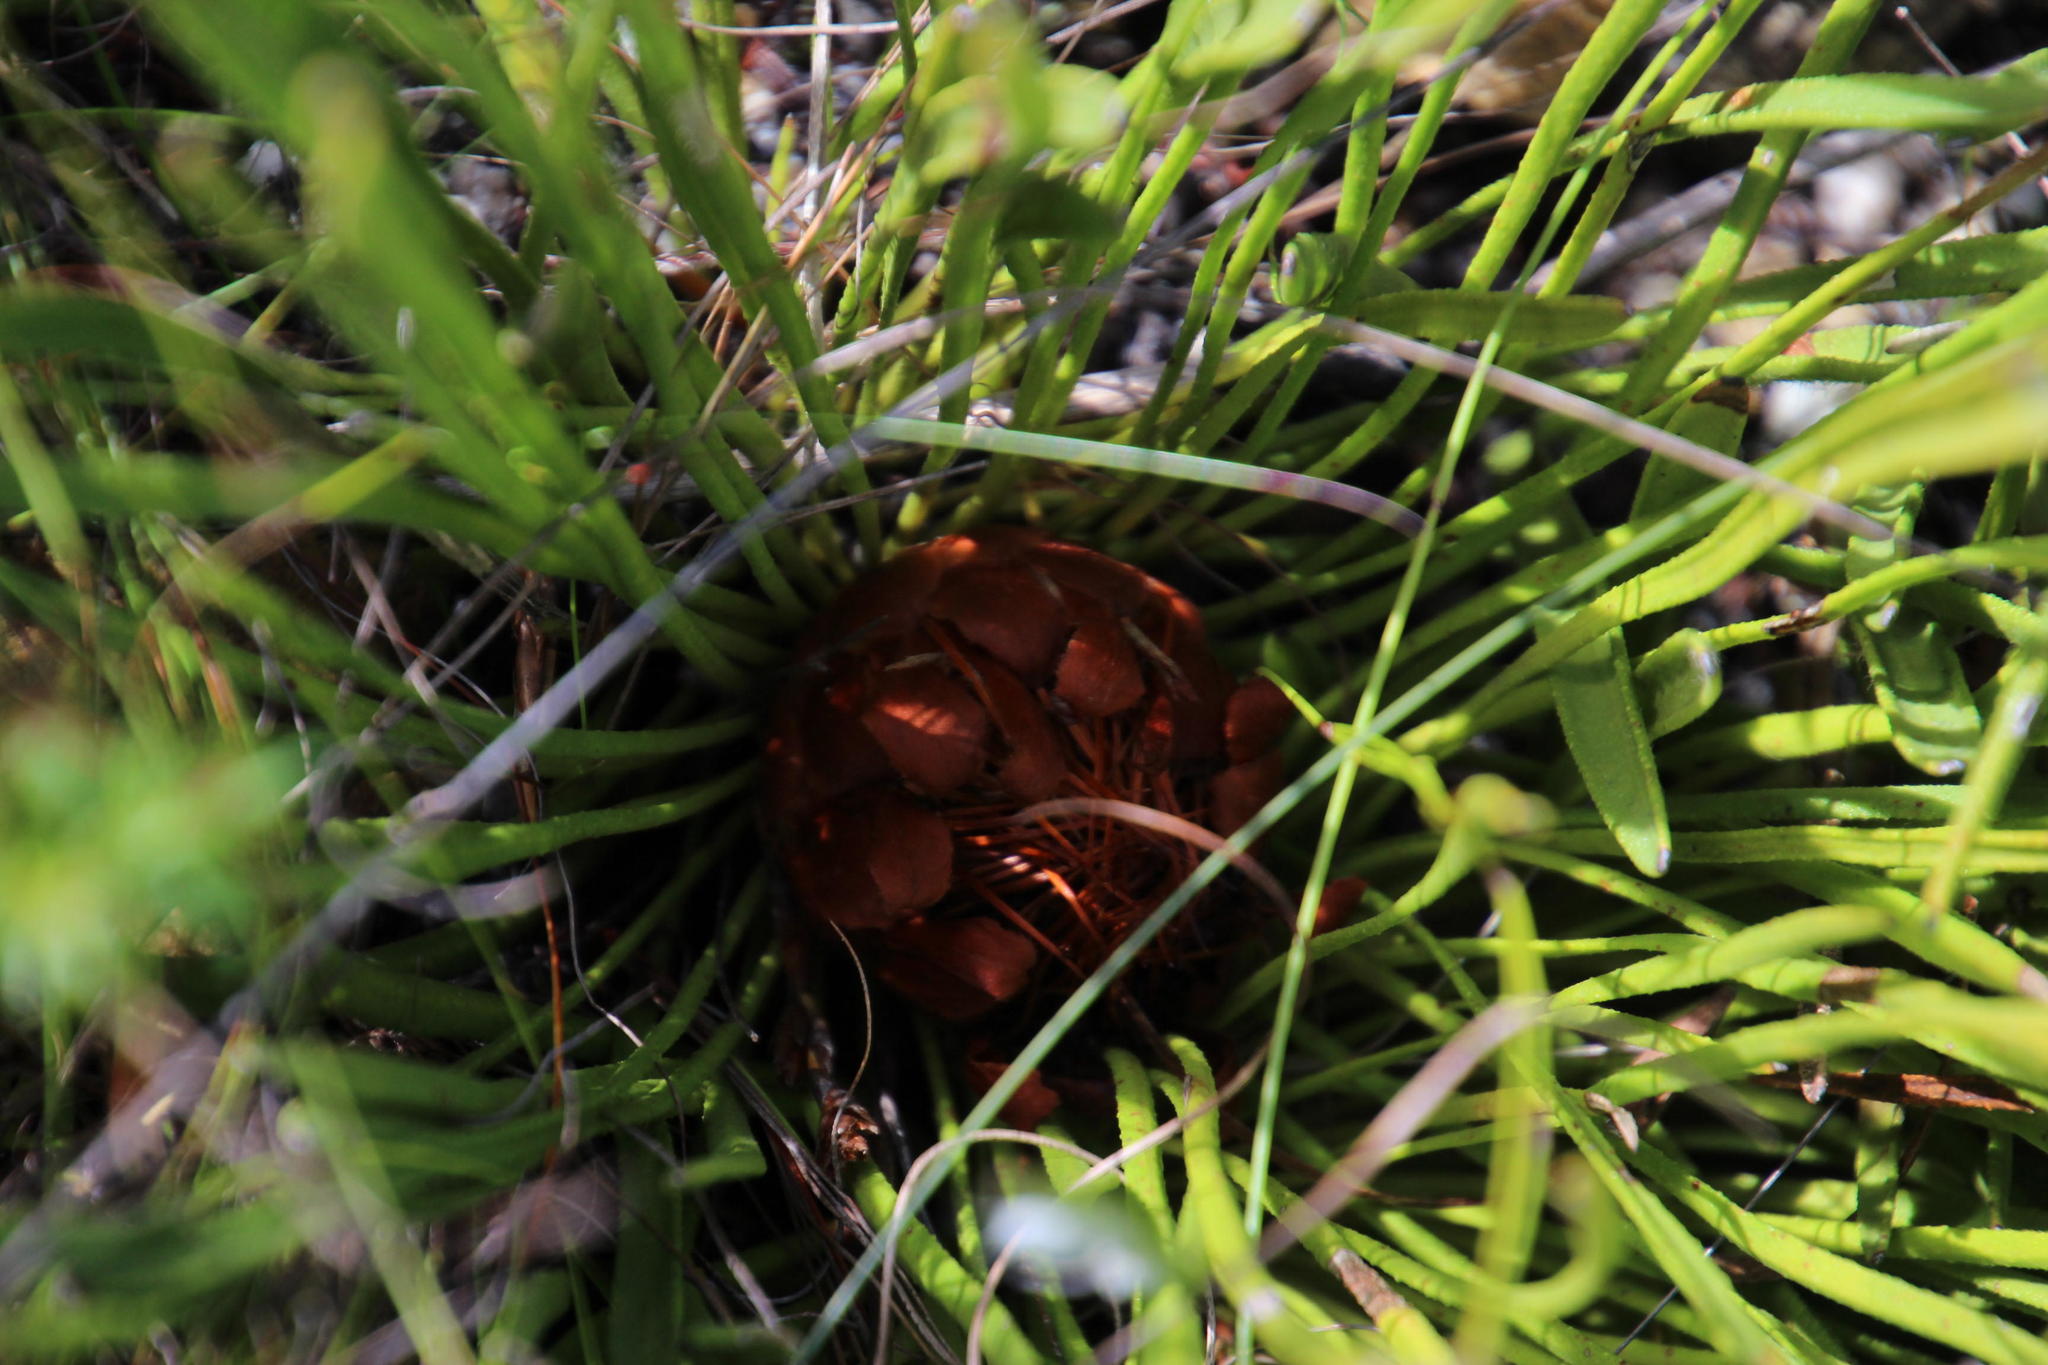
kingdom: Plantae
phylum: Tracheophyta
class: Magnoliopsida
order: Proteales
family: Proteaceae
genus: Protea
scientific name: Protea scabra
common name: Sandpaper-leaf sugarbush
